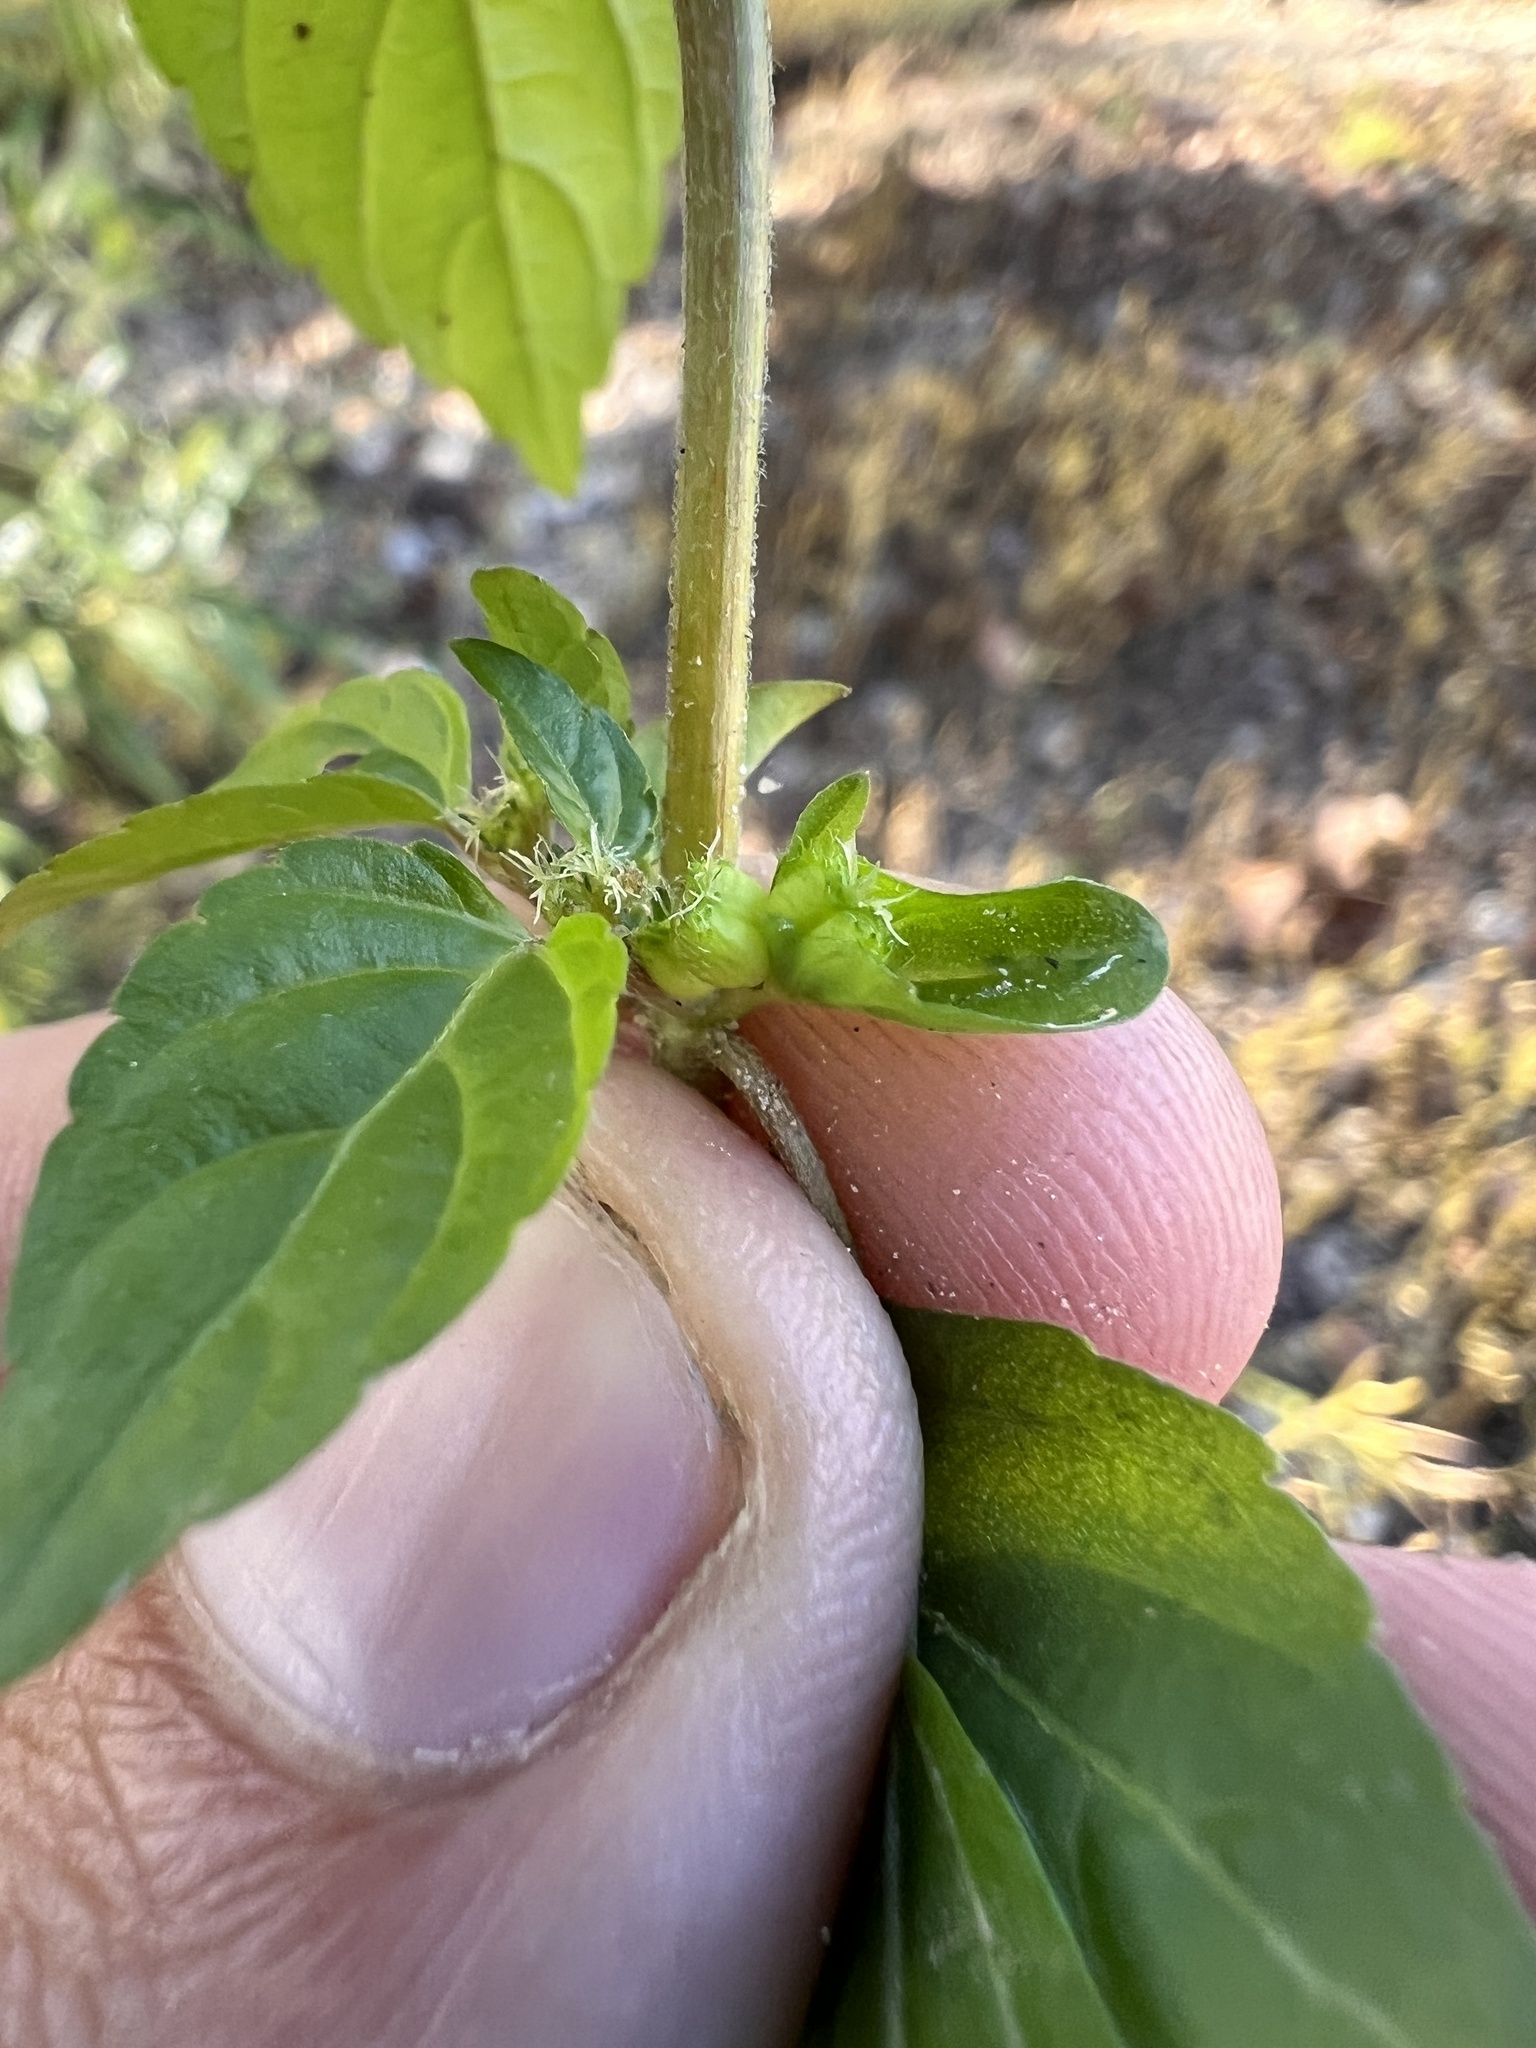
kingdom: Plantae
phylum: Tracheophyta
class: Magnoliopsida
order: Malpighiales
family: Euphorbiaceae
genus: Acalypha
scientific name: Acalypha deamii
